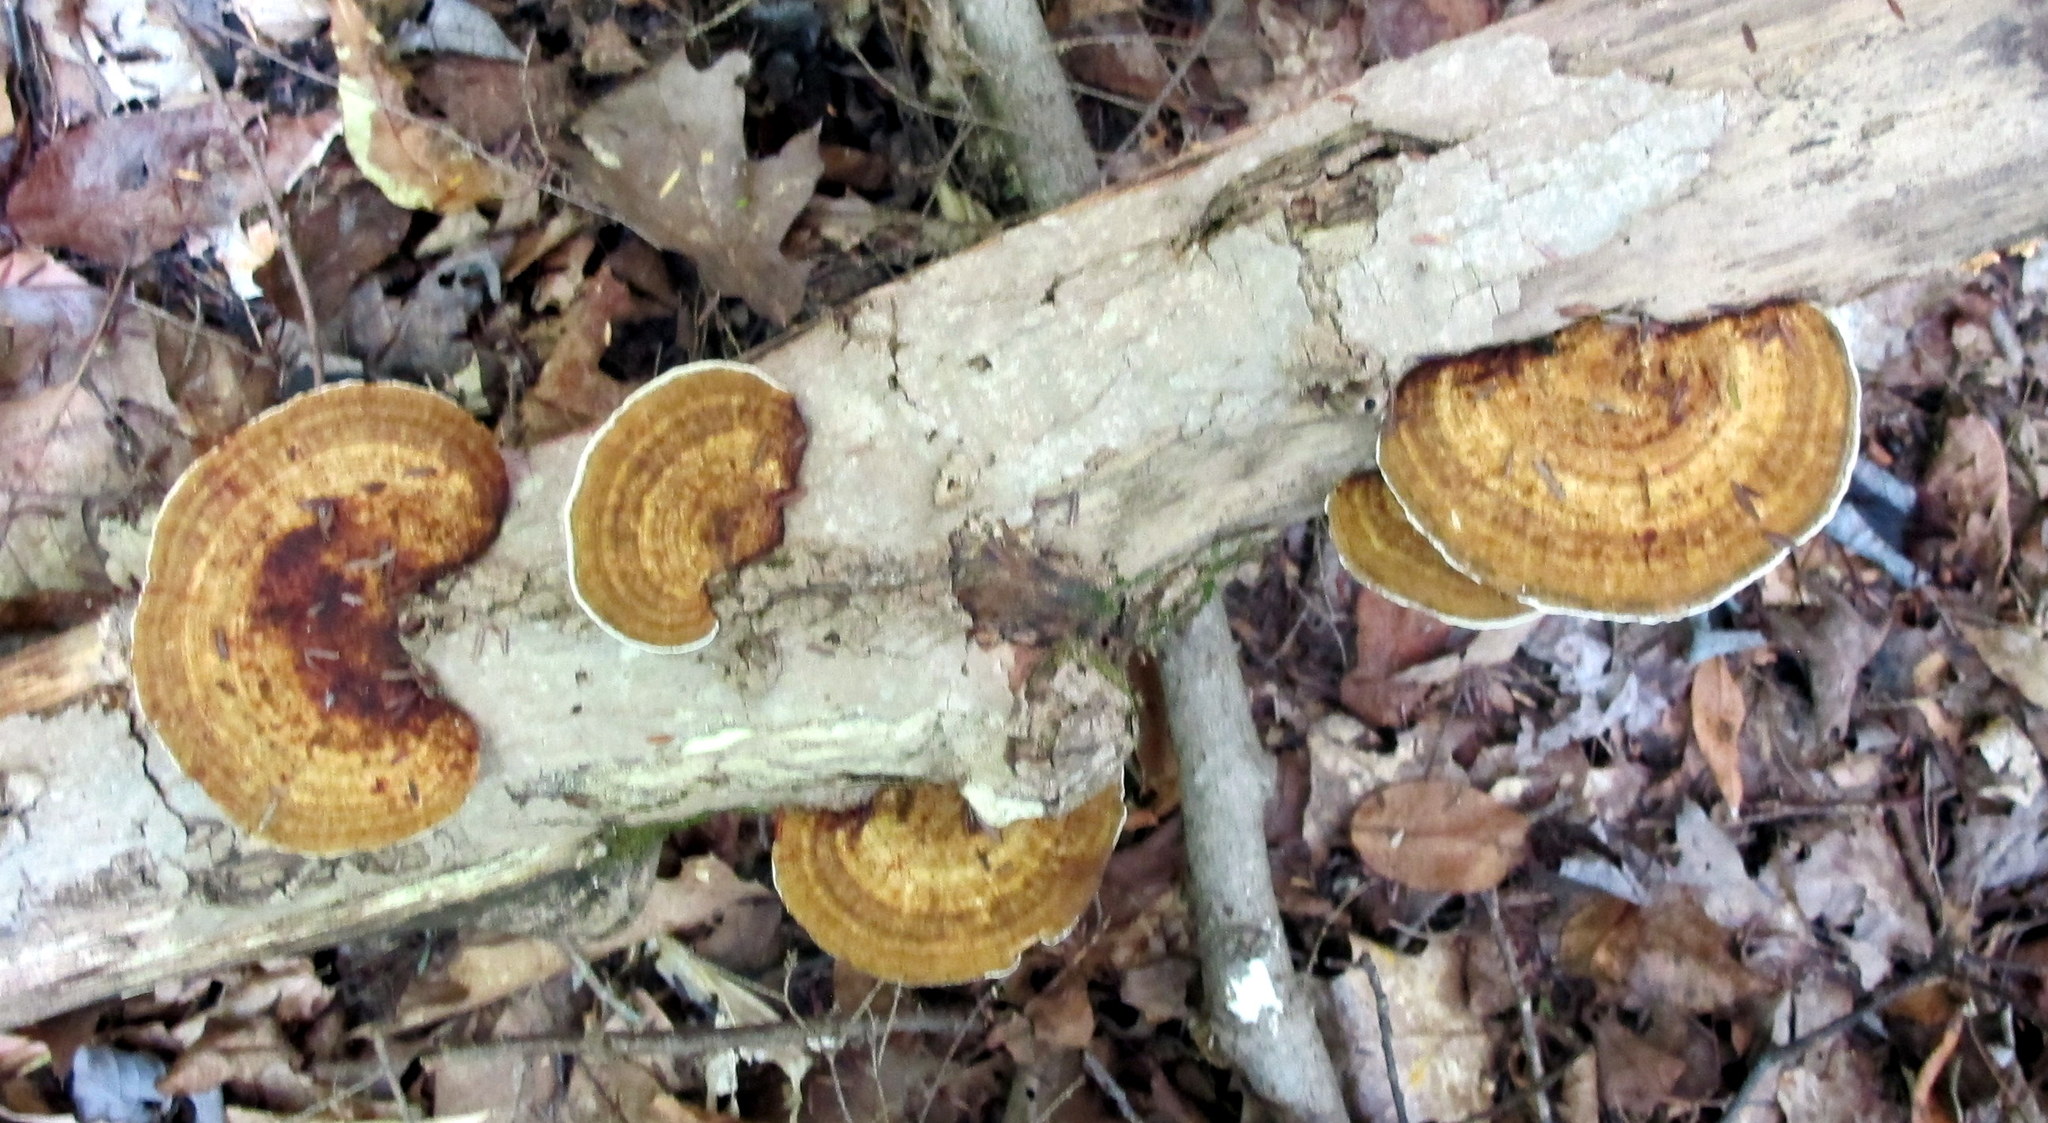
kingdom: Fungi
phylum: Basidiomycota
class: Agaricomycetes
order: Polyporales
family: Polyporaceae
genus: Daedaleopsis
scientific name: Daedaleopsis confragosa
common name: Blushing bracket
